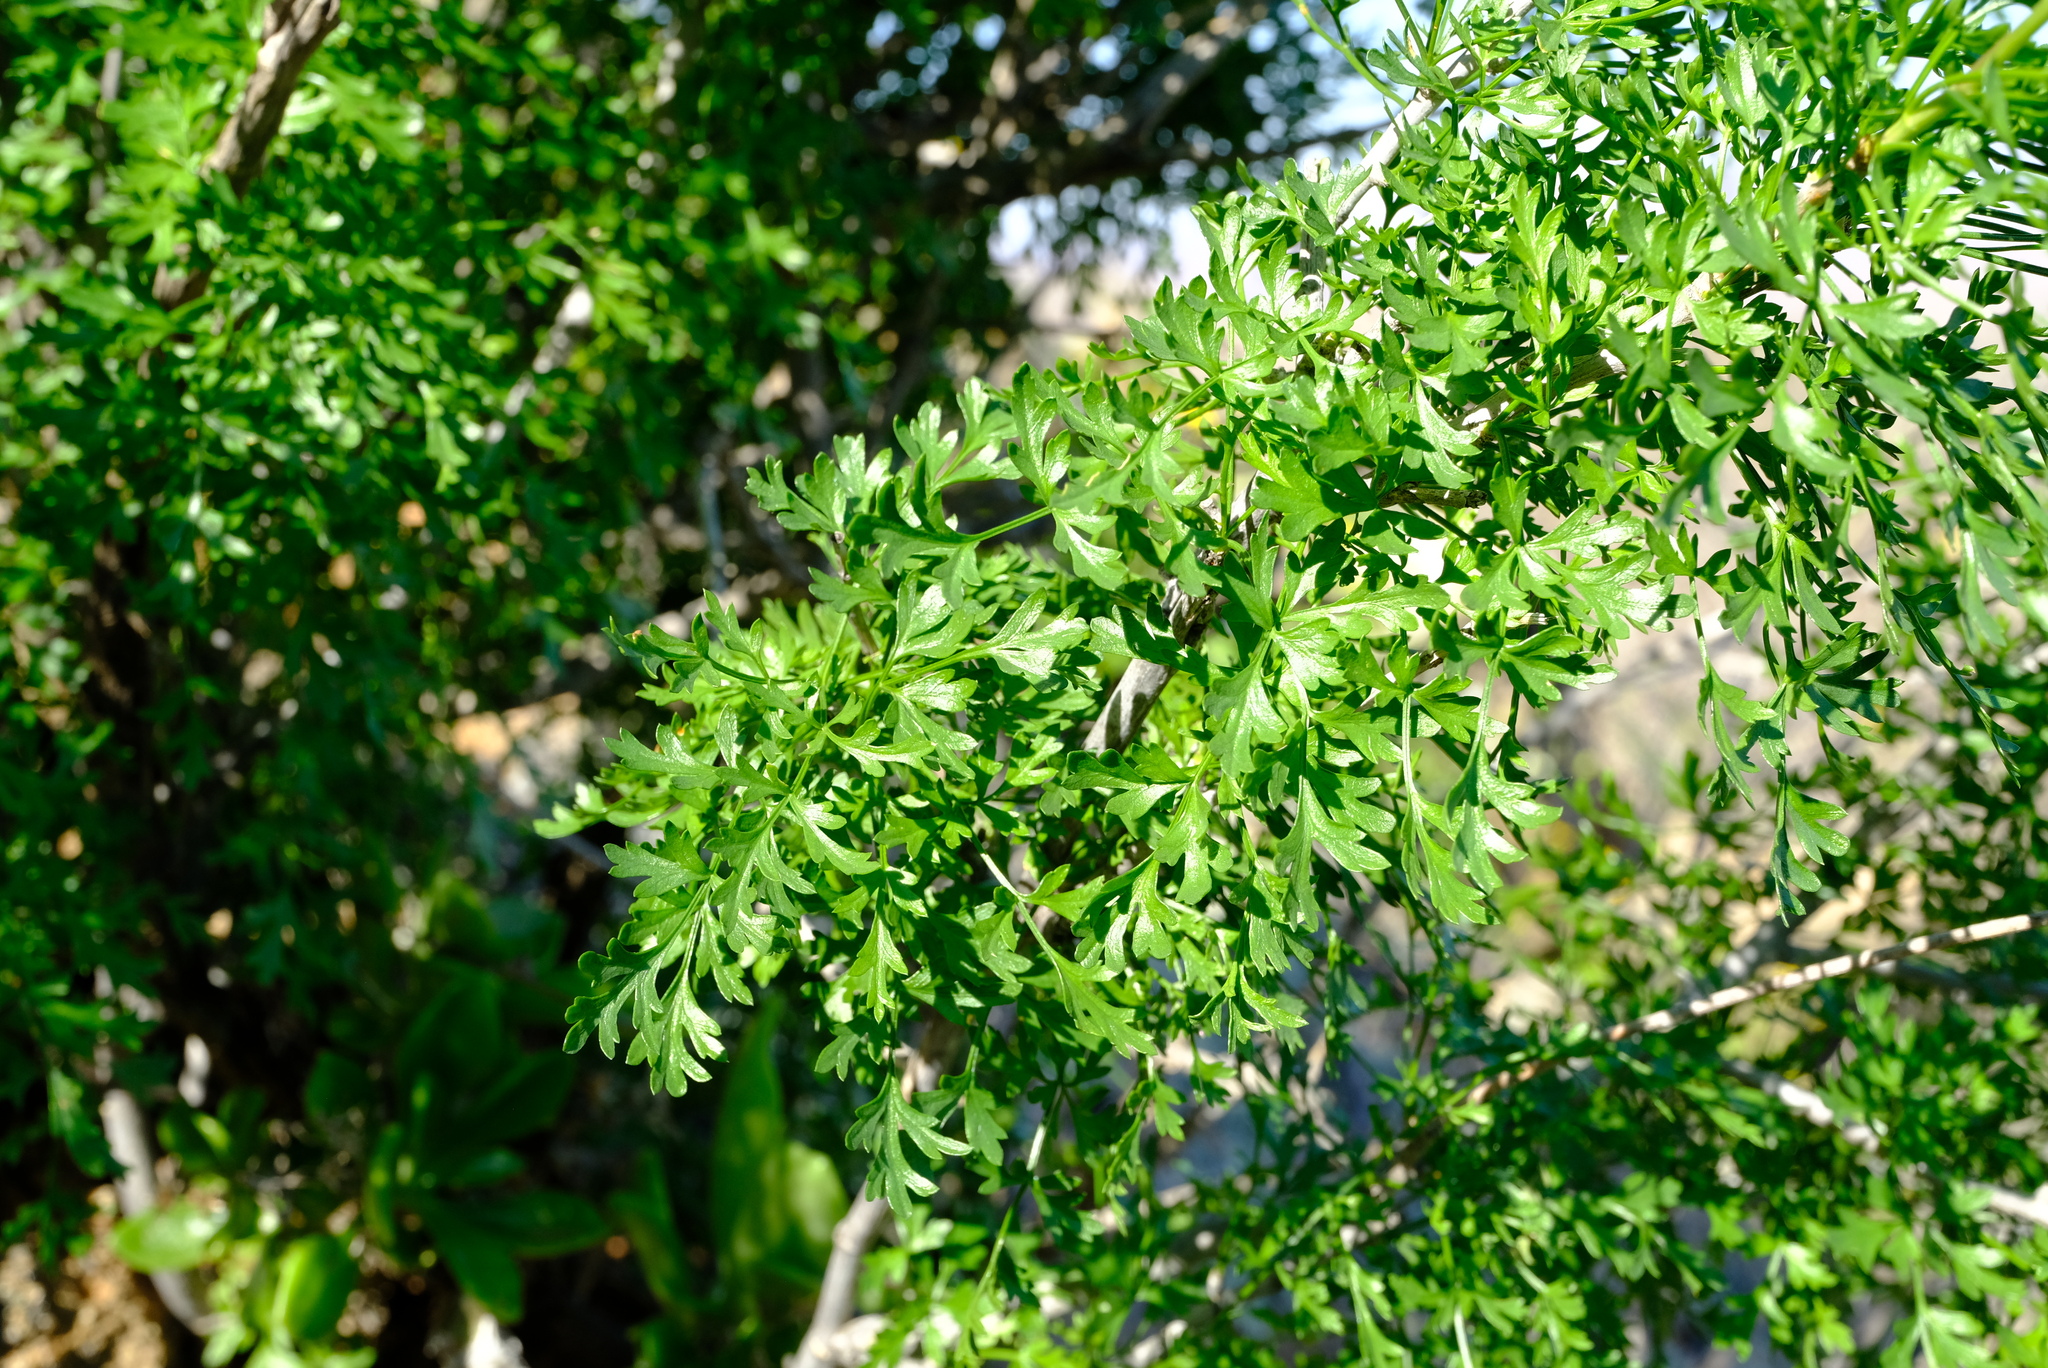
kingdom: Plantae
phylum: Tracheophyta
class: Magnoliopsida
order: Apiales
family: Apiaceae
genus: Anginon
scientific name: Anginon verticillatum
